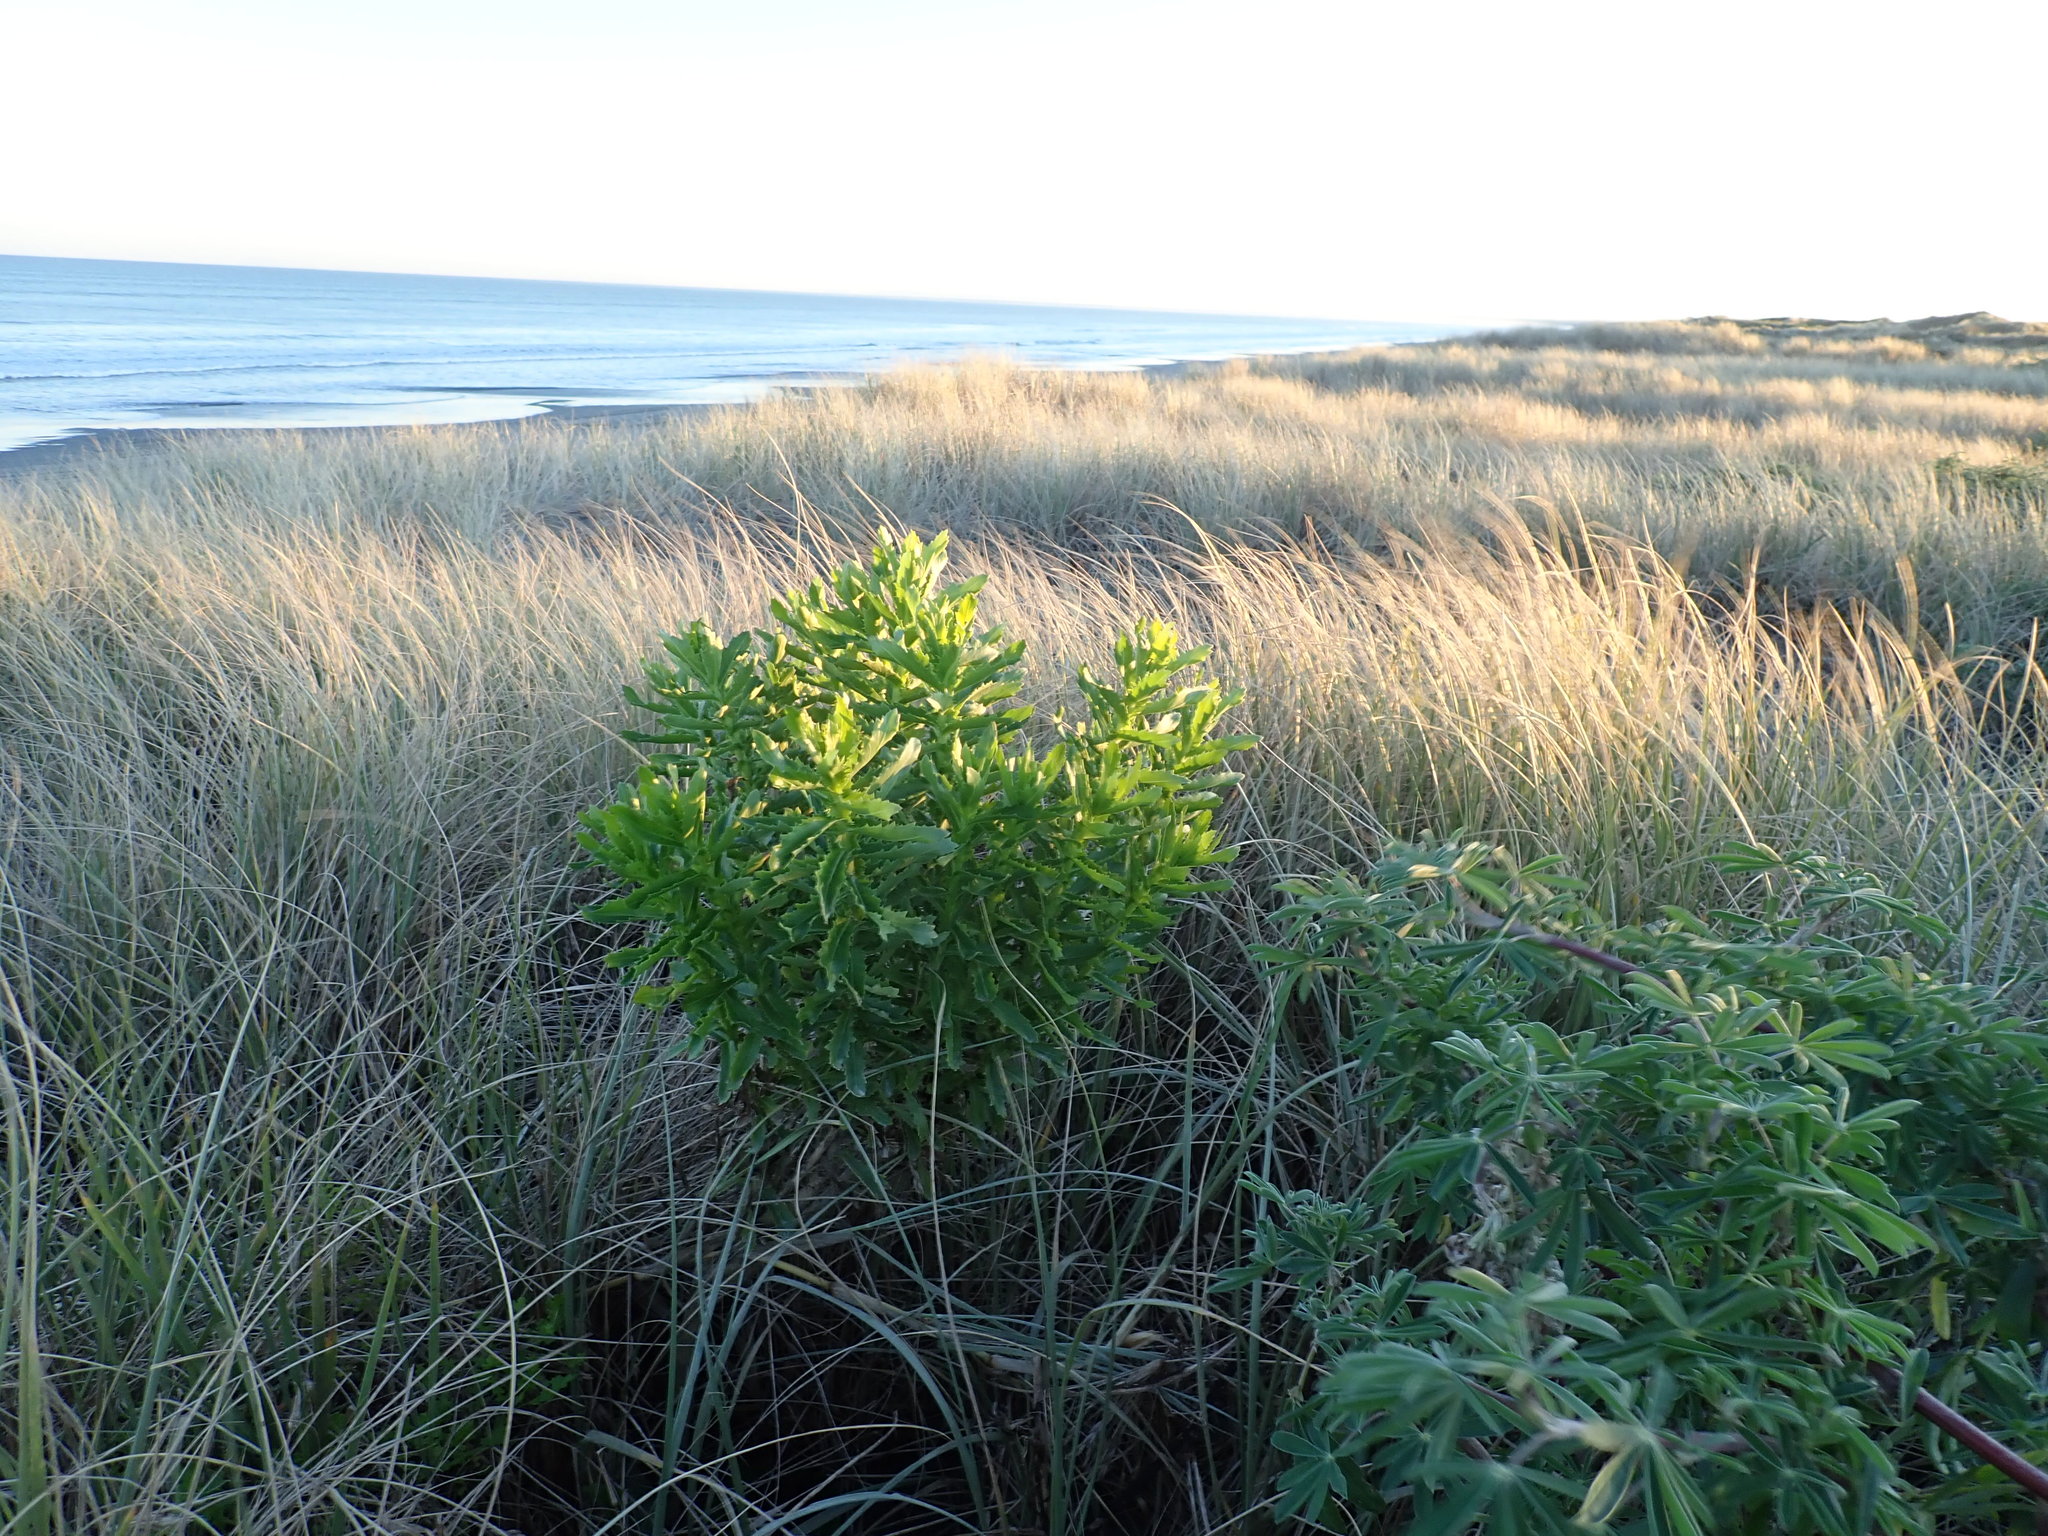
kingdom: Plantae
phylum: Tracheophyta
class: Magnoliopsida
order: Asterales
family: Asteraceae
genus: Senecio
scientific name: Senecio glastifolius
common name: Woad-leaved ragwort
